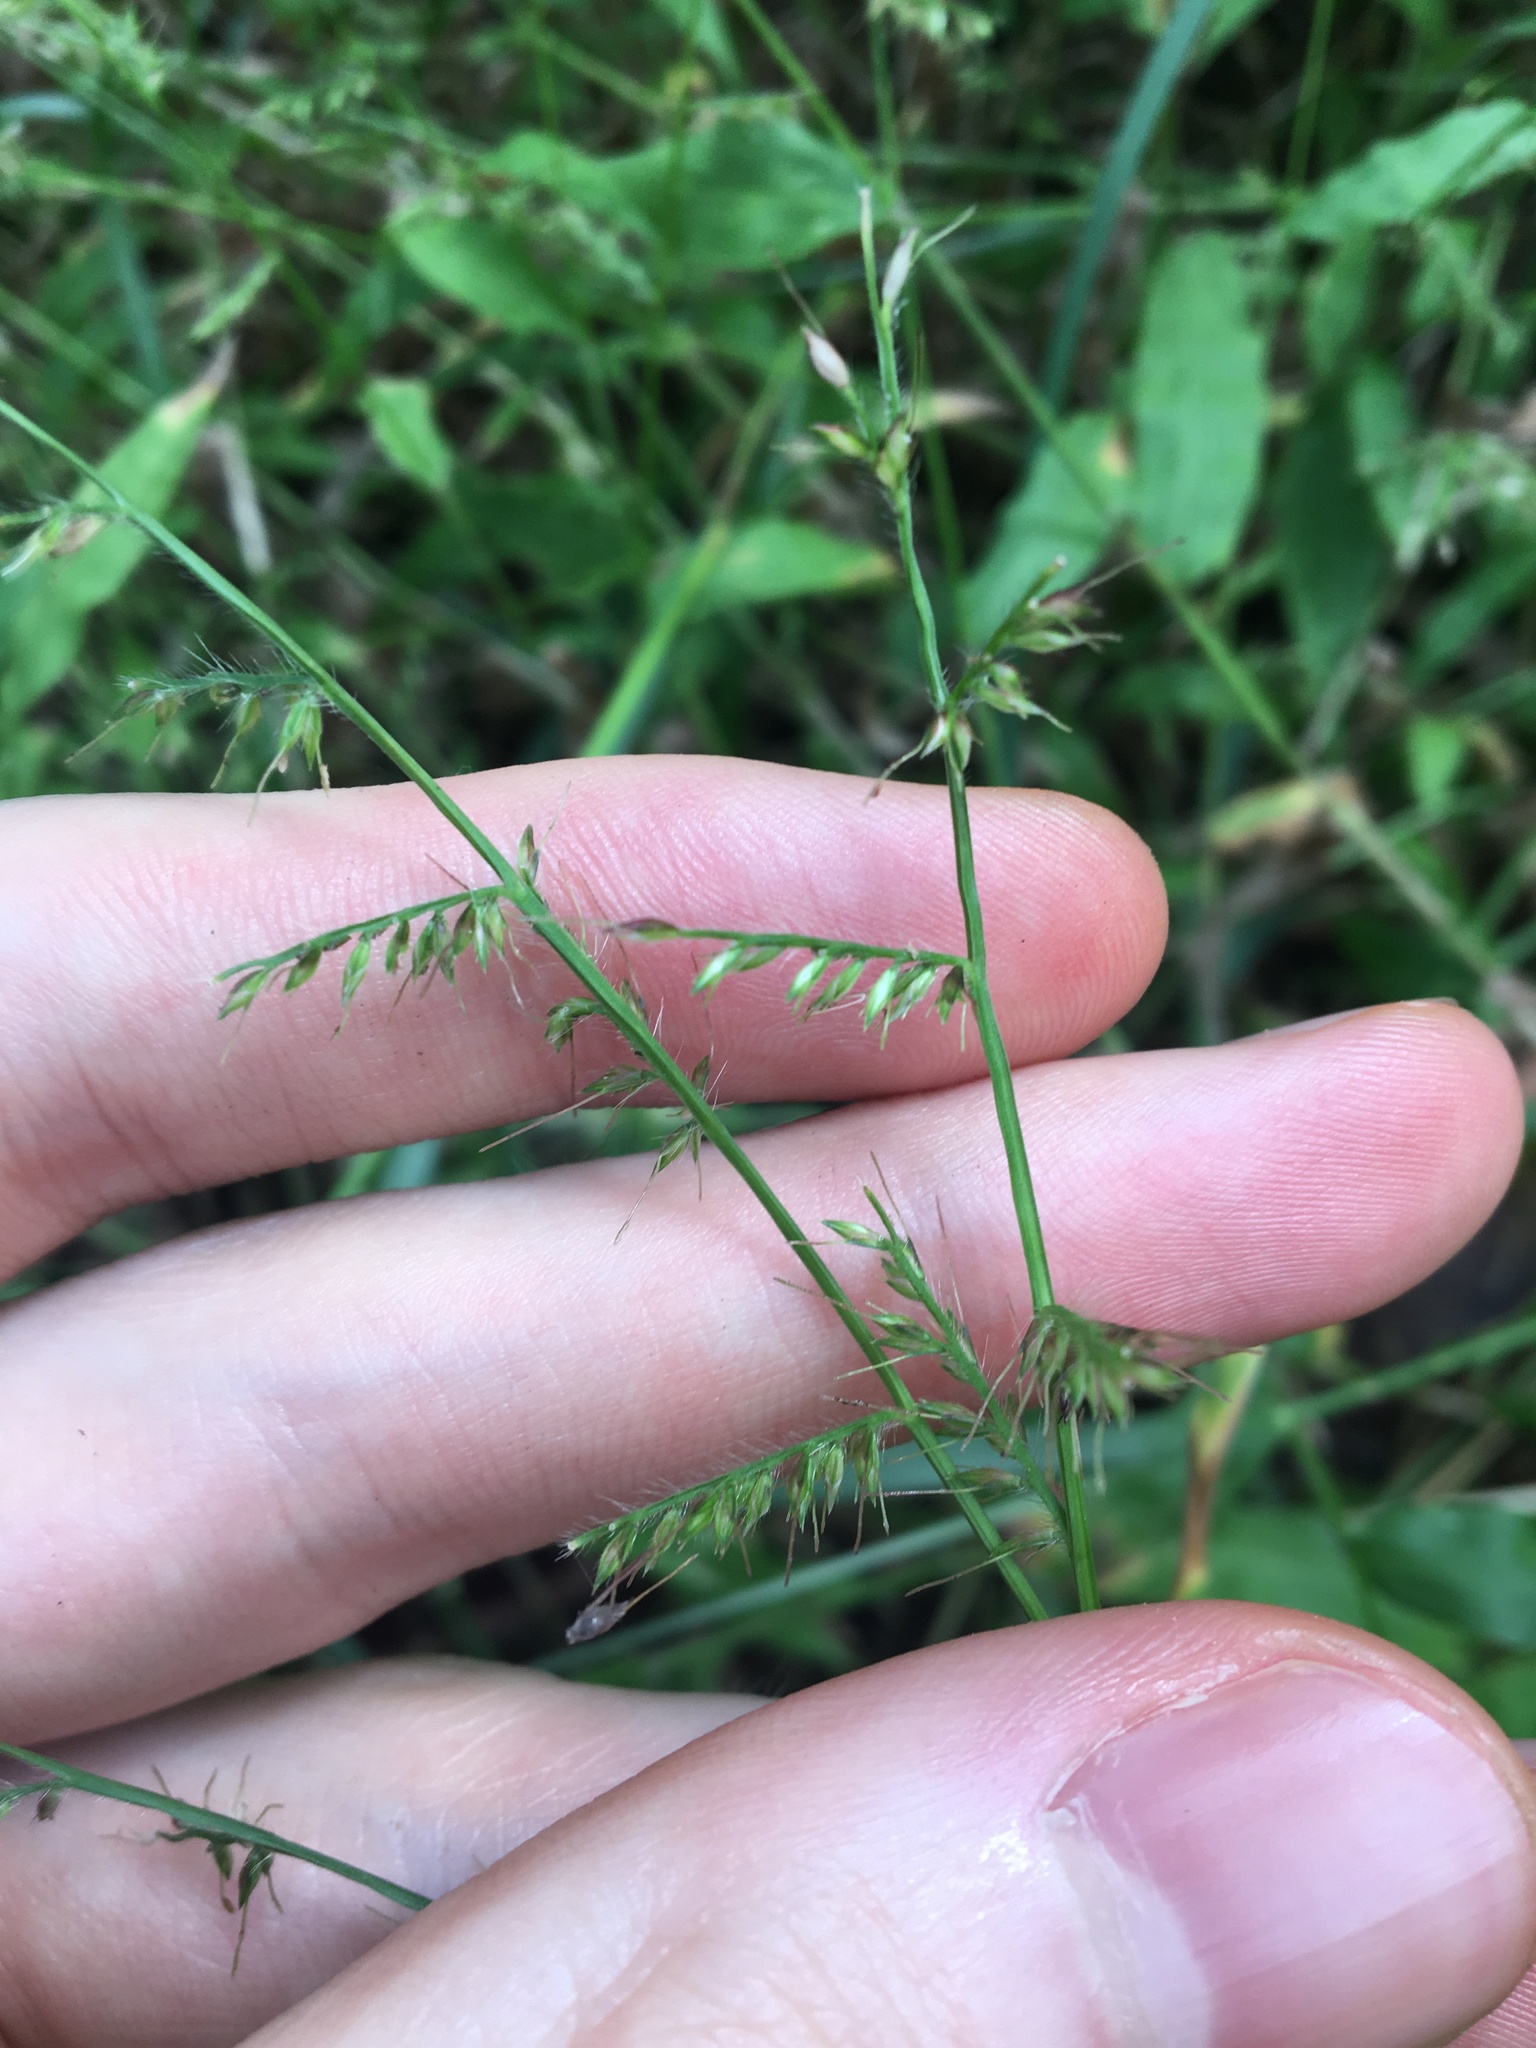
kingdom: Plantae
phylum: Tracheophyta
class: Liliopsida
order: Poales
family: Poaceae
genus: Oplismenus
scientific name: Oplismenus hirtellus
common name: Basketgrass
